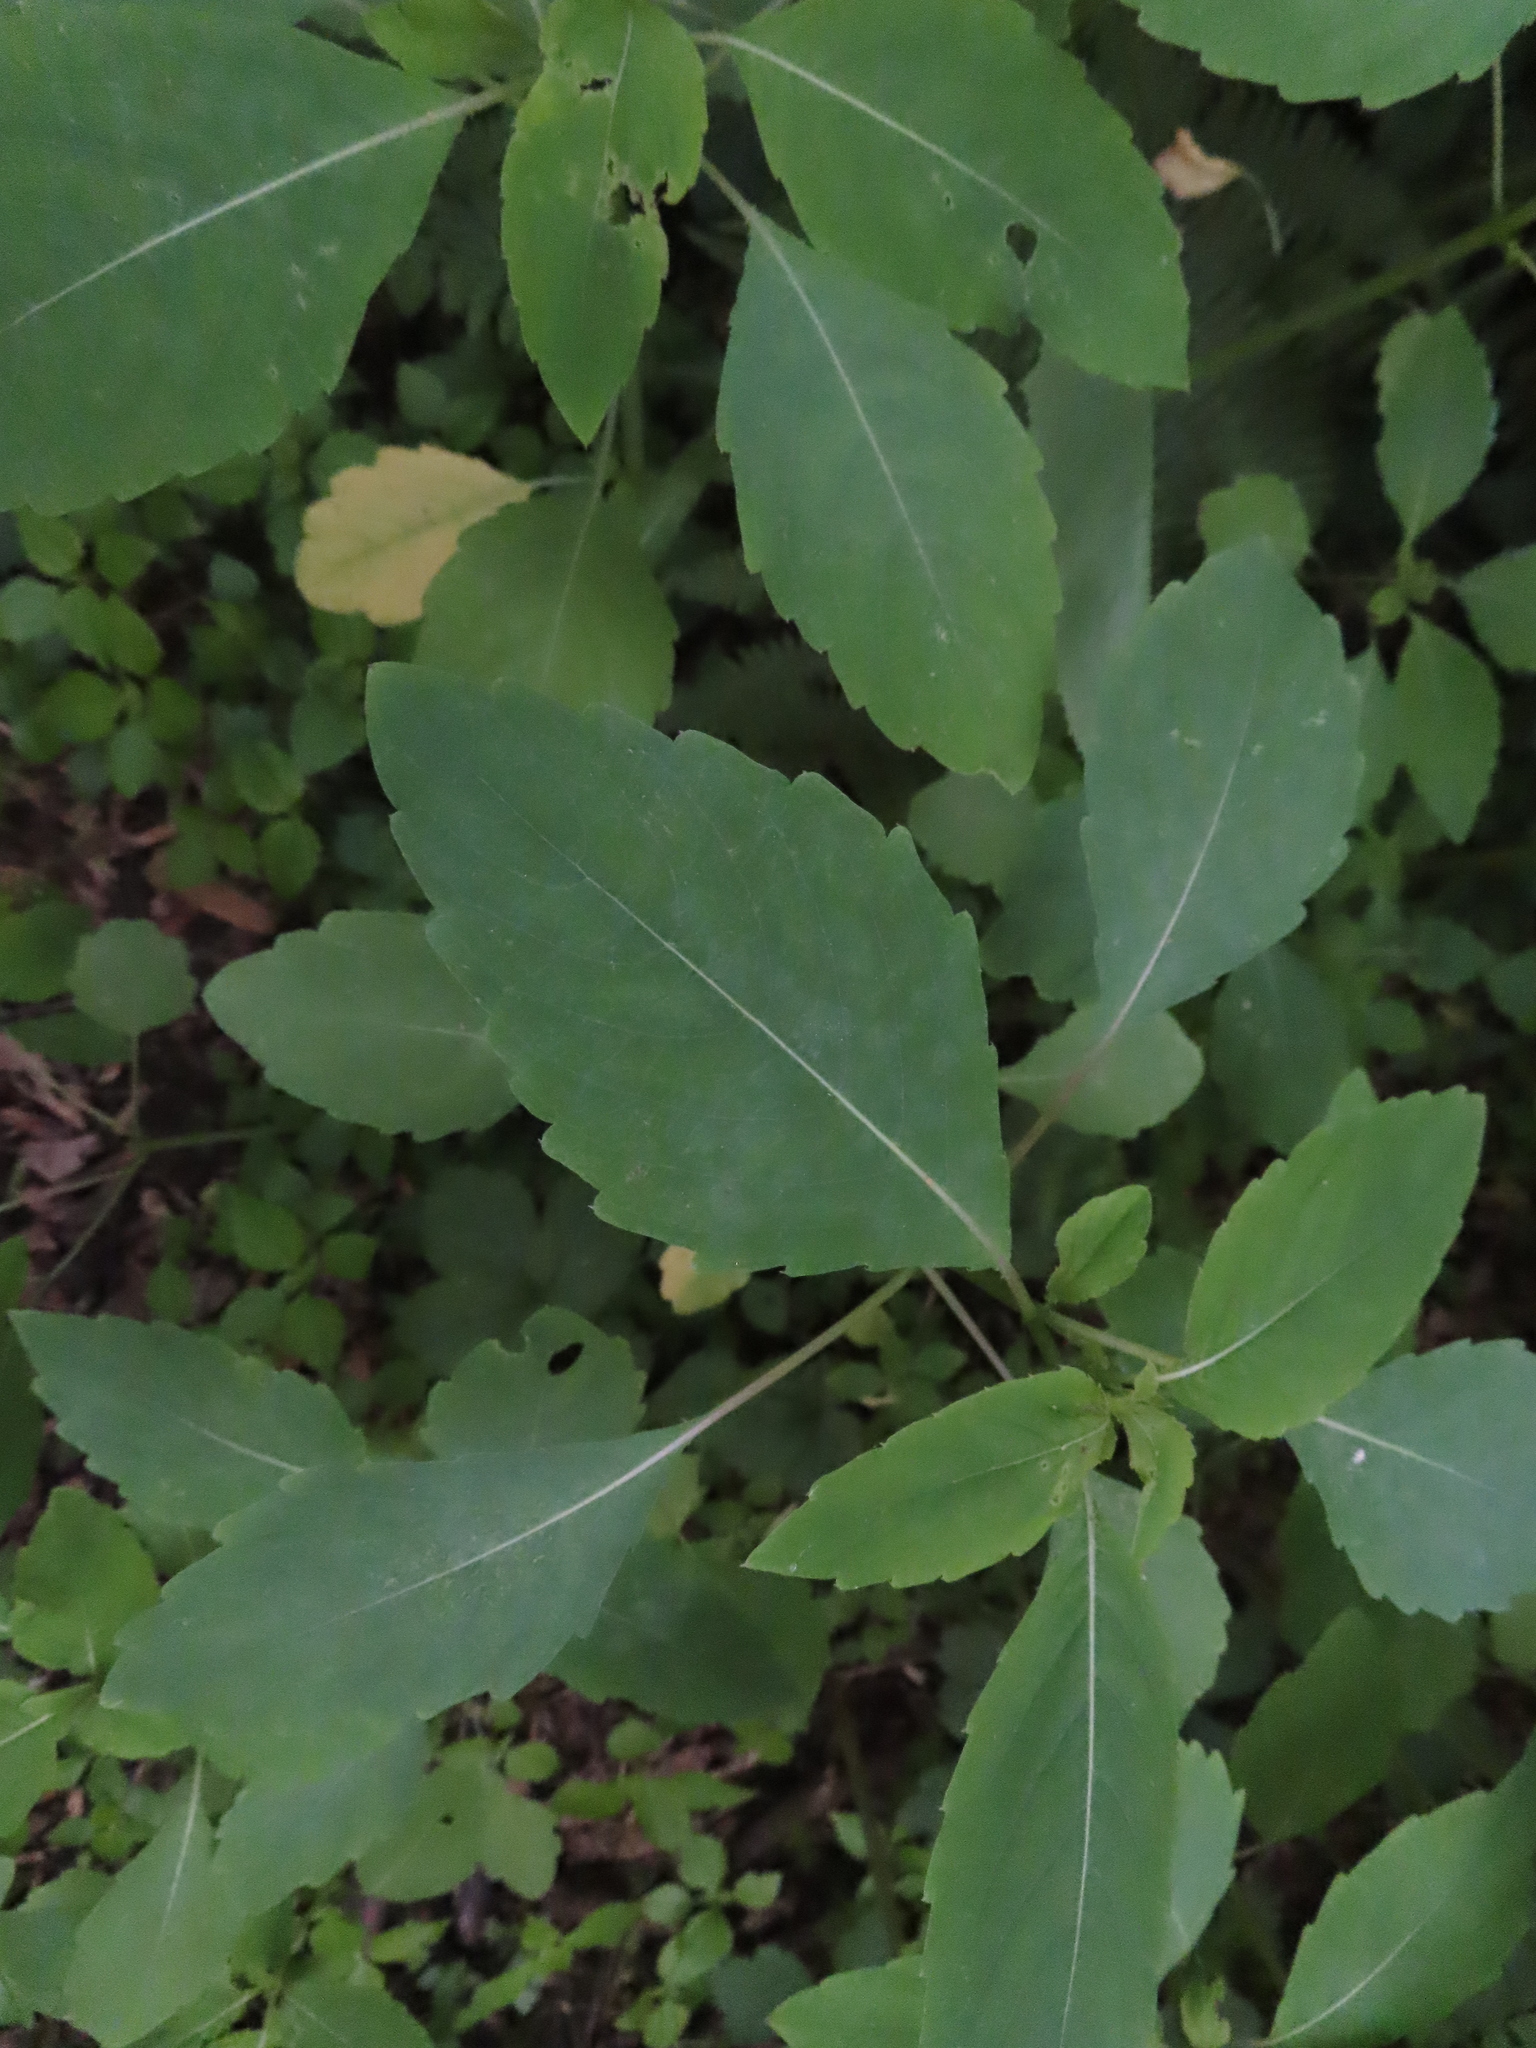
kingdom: Plantae
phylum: Tracheophyta
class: Magnoliopsida
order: Ericales
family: Balsaminaceae
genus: Impatiens
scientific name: Impatiens capensis
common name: Orange balsam
